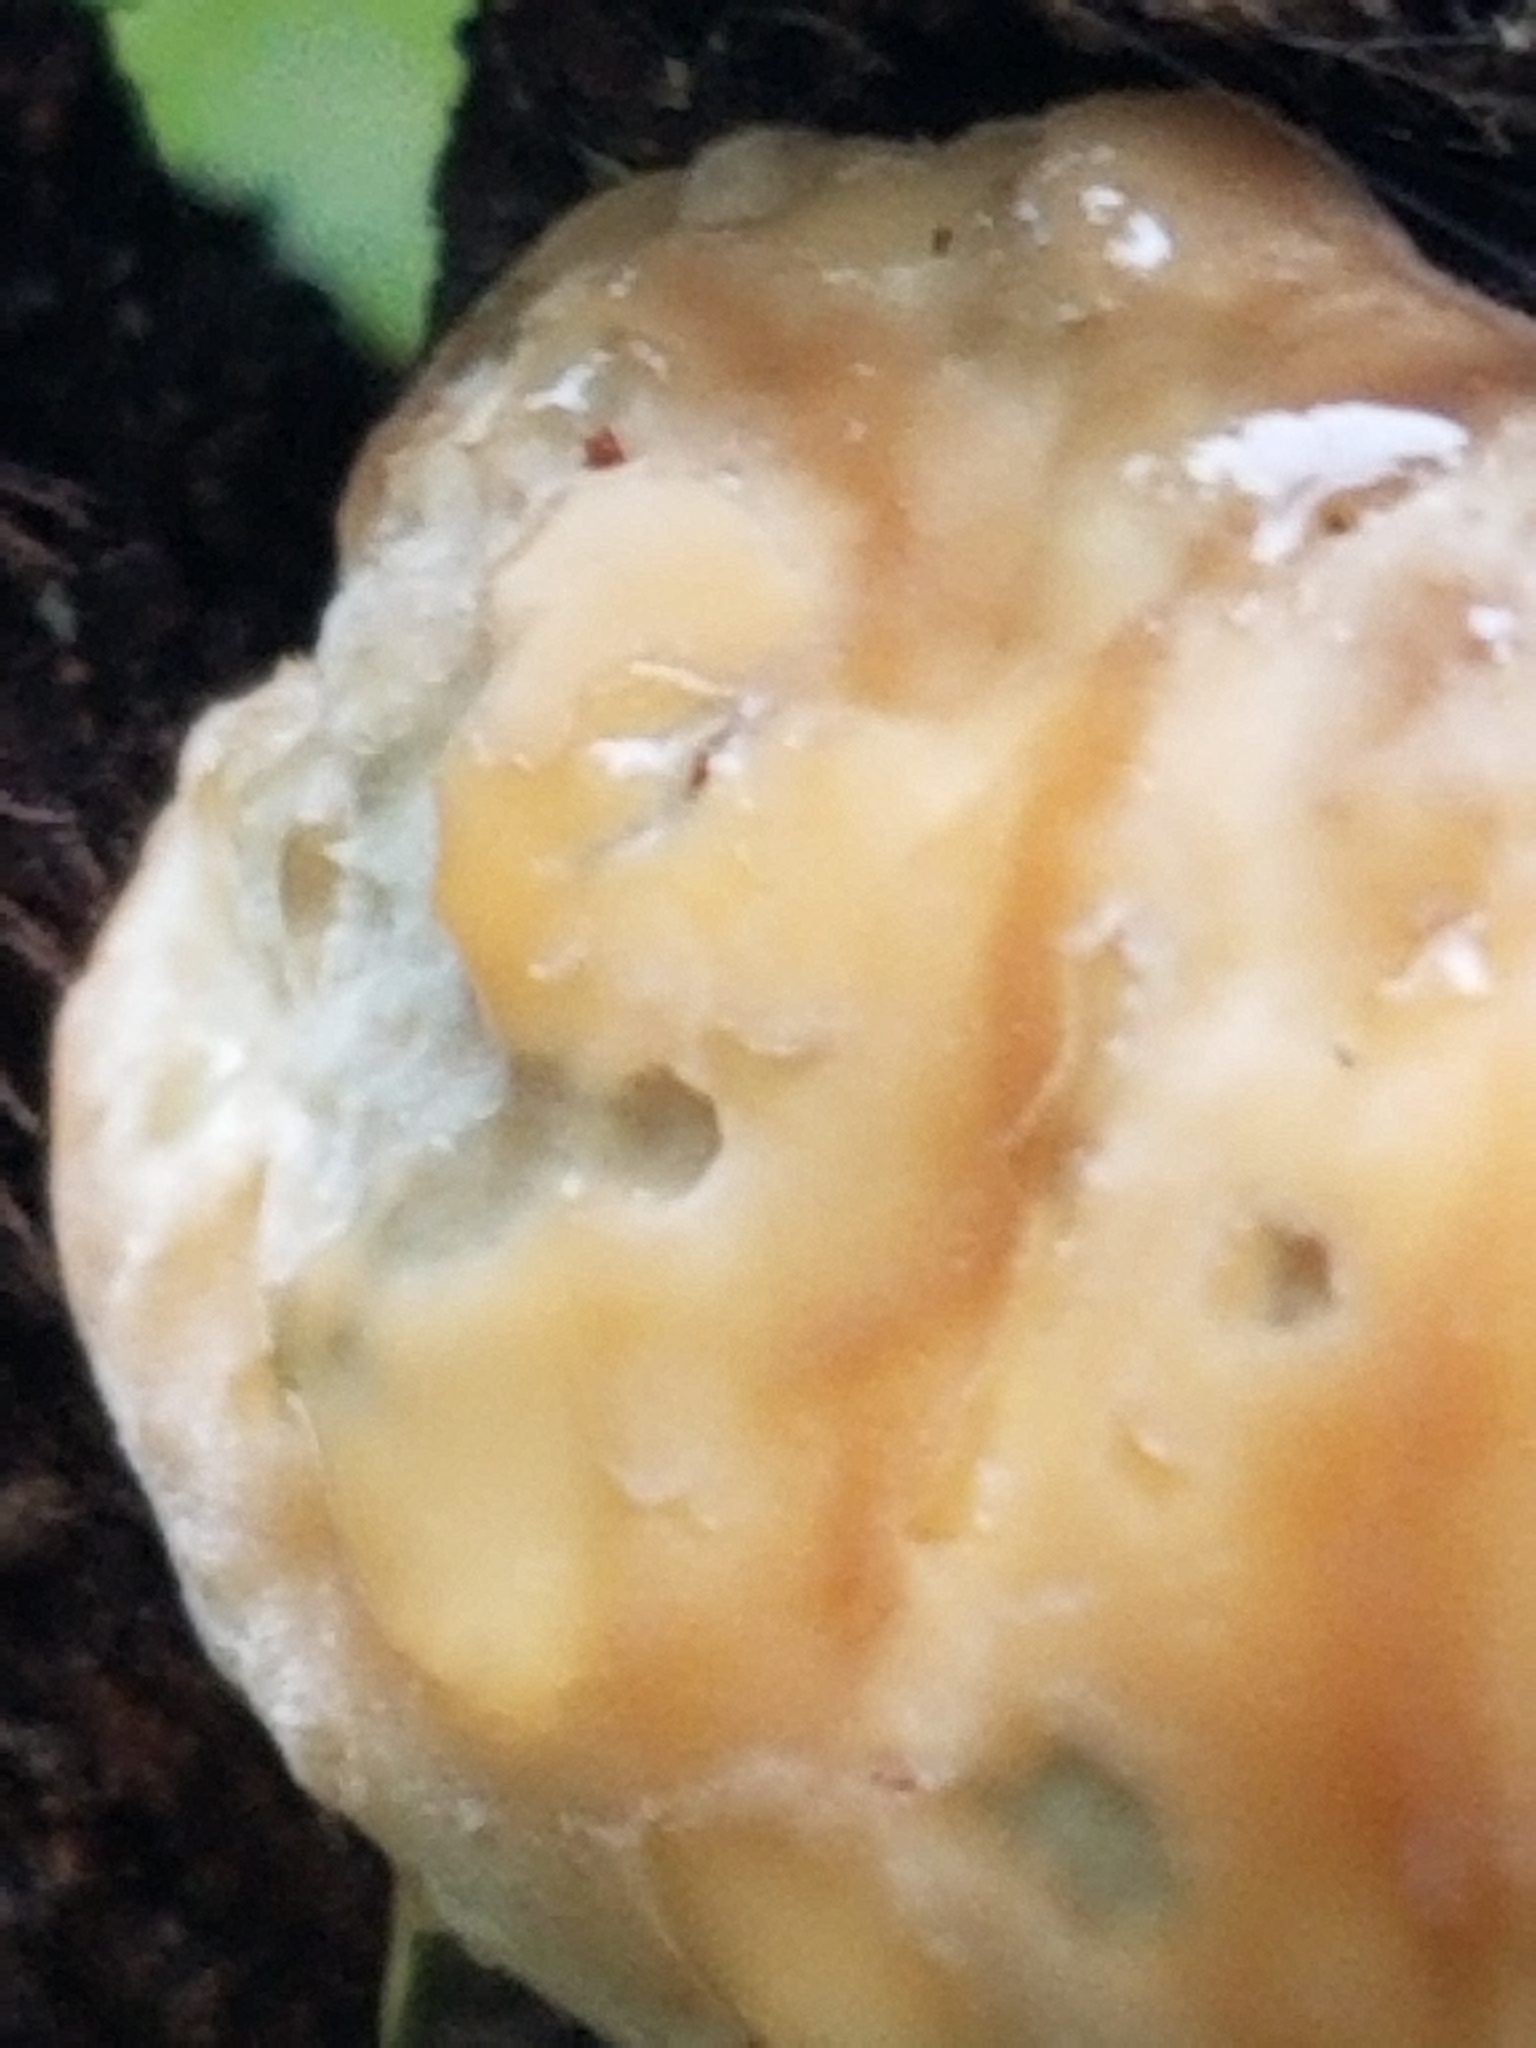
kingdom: Fungi
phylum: Basidiomycota
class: Agaricomycetes
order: Hymenochaetales
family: Hymenochaetaceae
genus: Pseudoinonotus
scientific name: Pseudoinonotus dryadeus
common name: Oak bracket
